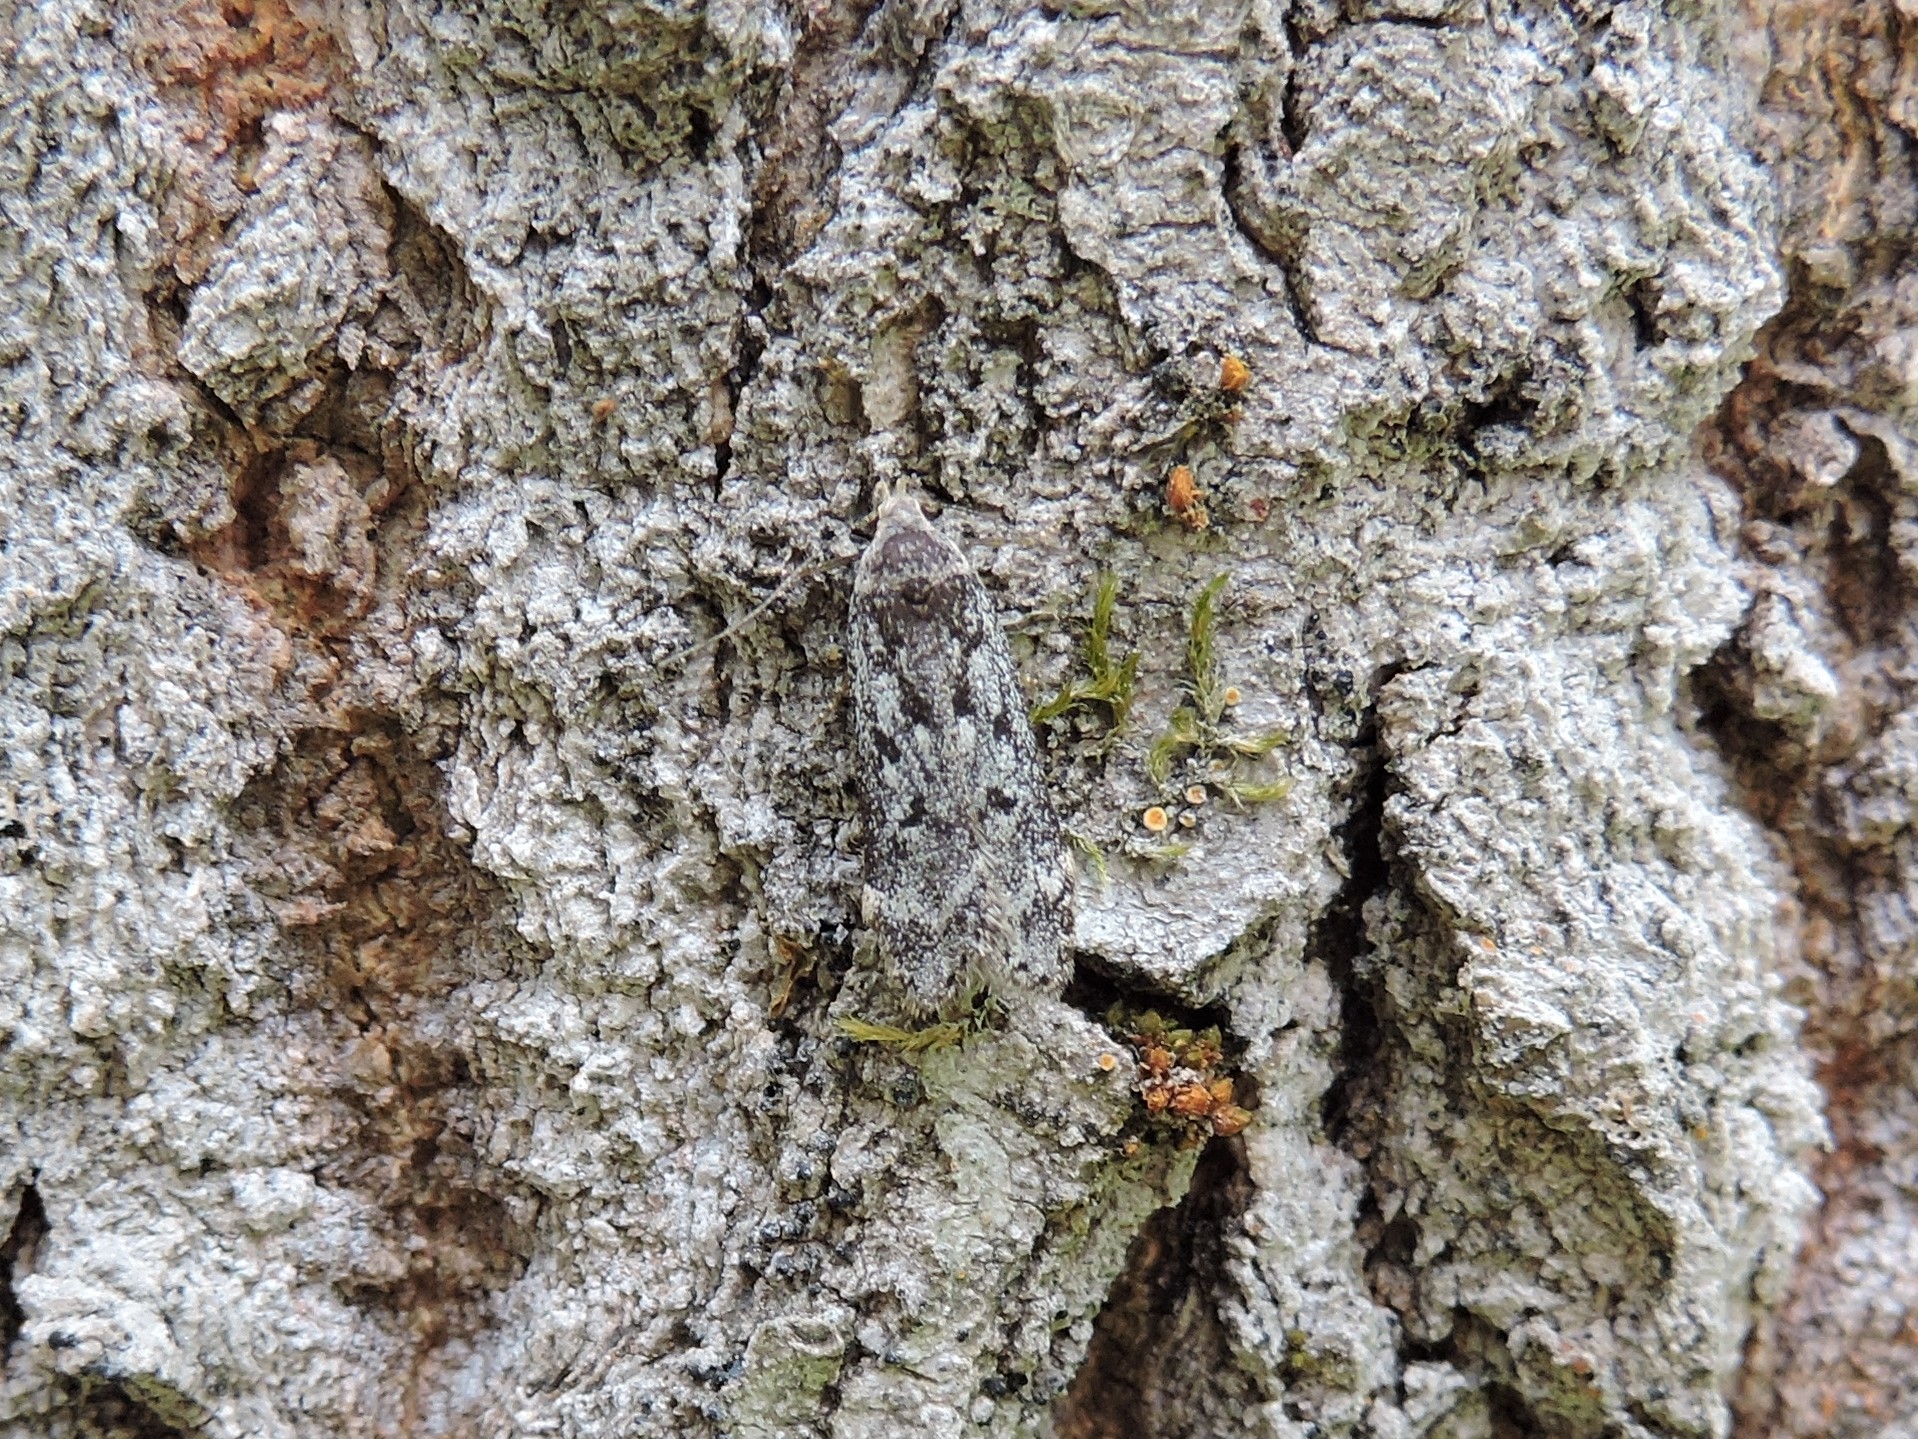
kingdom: Animalia
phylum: Arthropoda
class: Insecta
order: Lepidoptera
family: Gelechiidae
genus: Anacampsis
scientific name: Anacampsis populella
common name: Poplar leafroller
